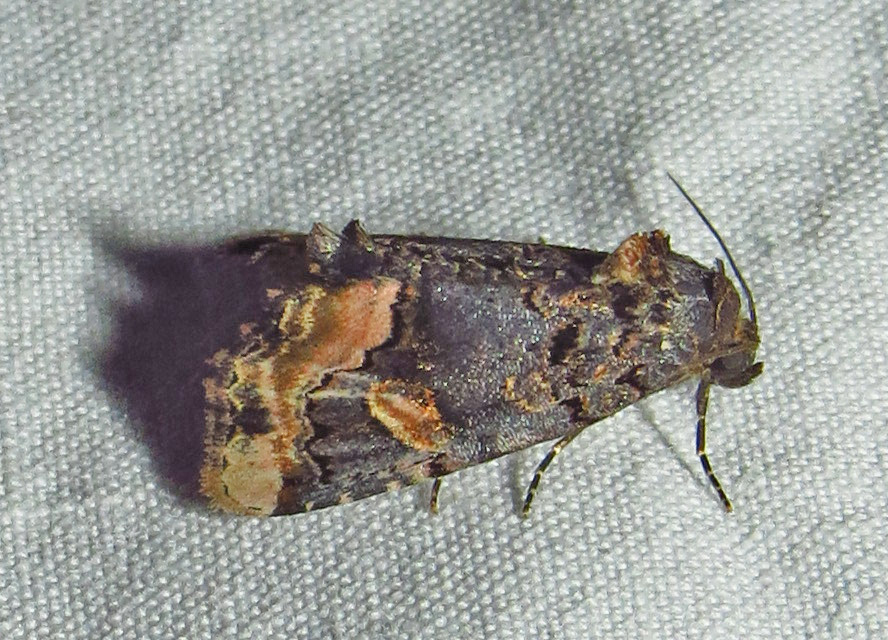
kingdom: Animalia
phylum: Arthropoda
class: Insecta
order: Lepidoptera
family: Noctuidae
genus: Homophoberia
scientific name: Homophoberia apicosa
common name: Black wedge-spot
